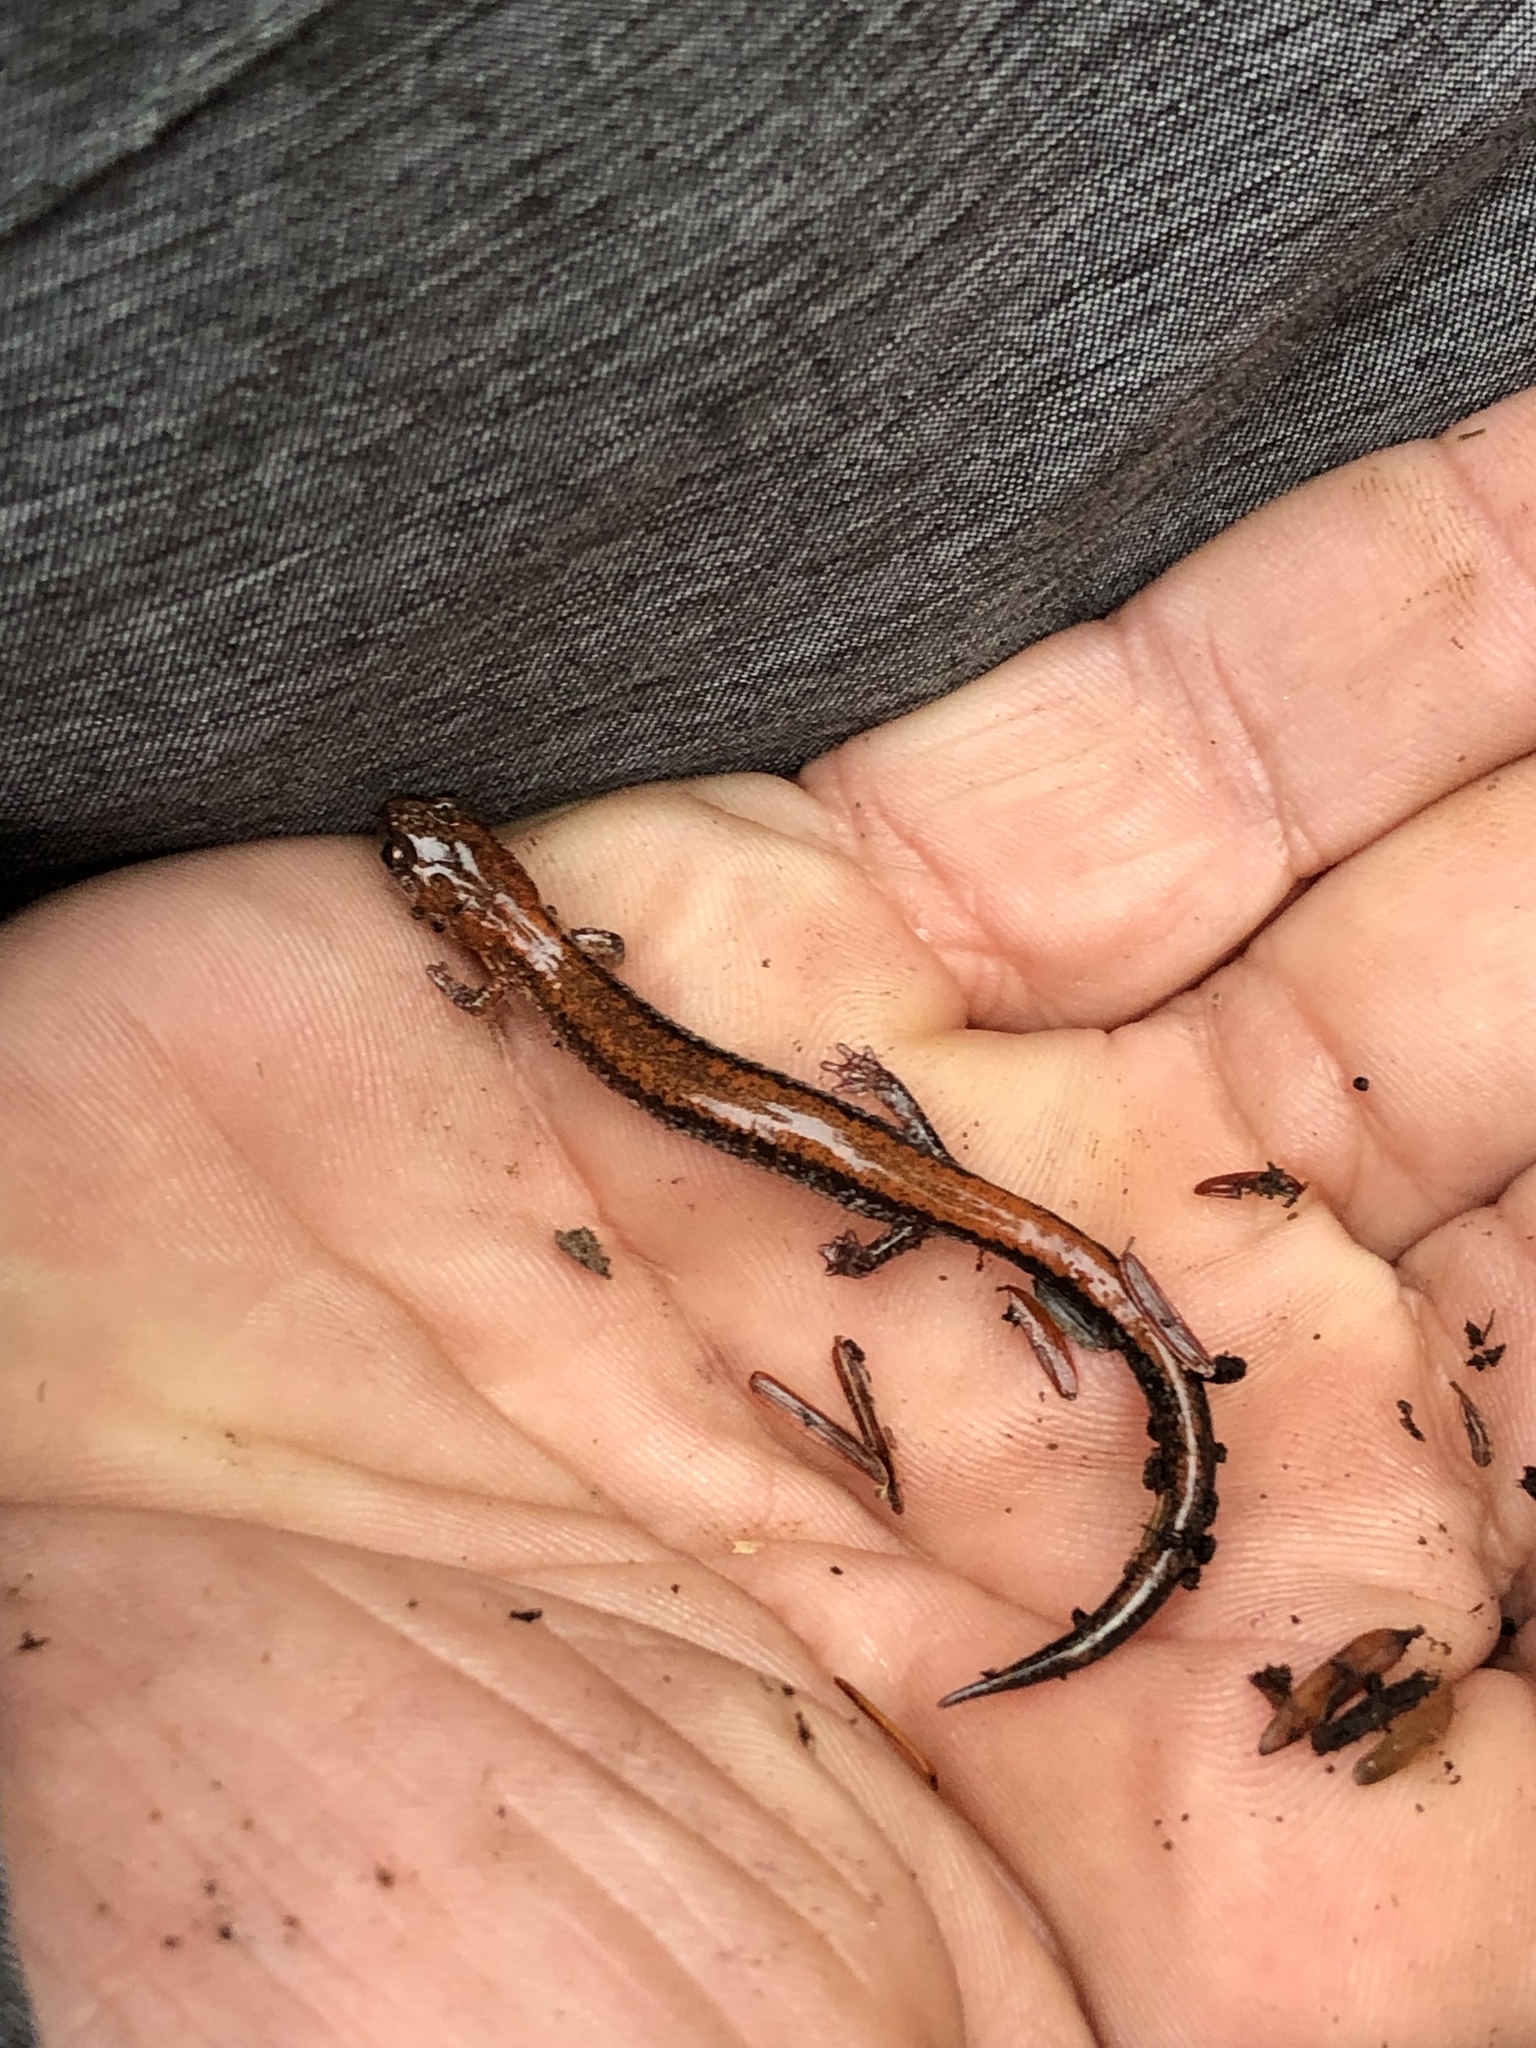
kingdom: Animalia
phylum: Chordata
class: Amphibia
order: Caudata
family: Plethodontidae
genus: Plethodon
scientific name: Plethodon cinereus
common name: Redback salamander
